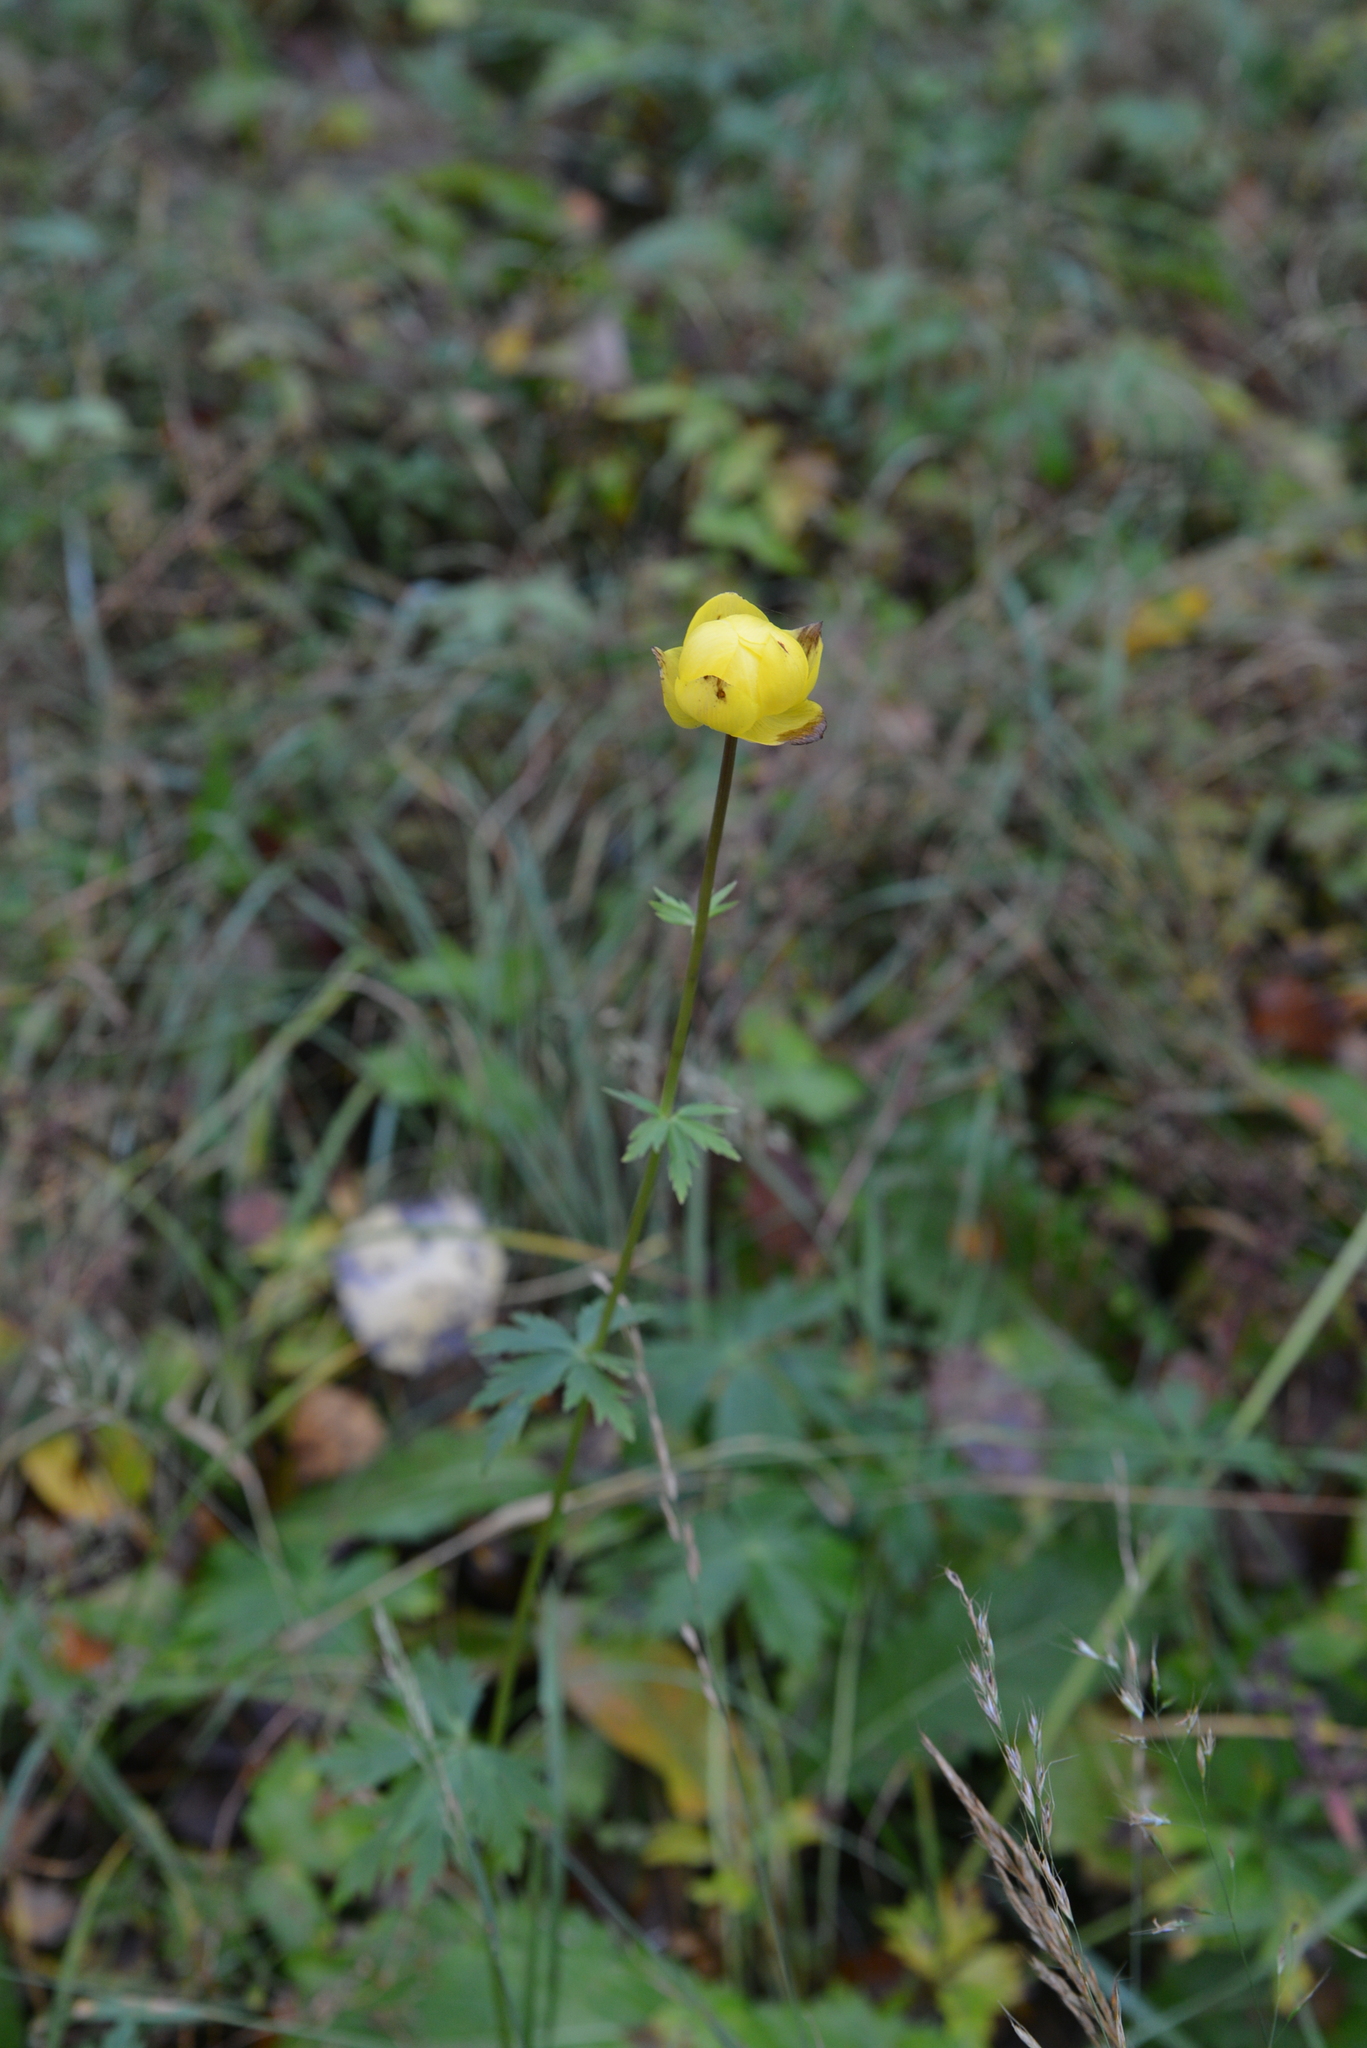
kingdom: Plantae
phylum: Tracheophyta
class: Magnoliopsida
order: Ranunculales
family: Ranunculaceae
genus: Trollius
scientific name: Trollius europaeus
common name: European globeflower
